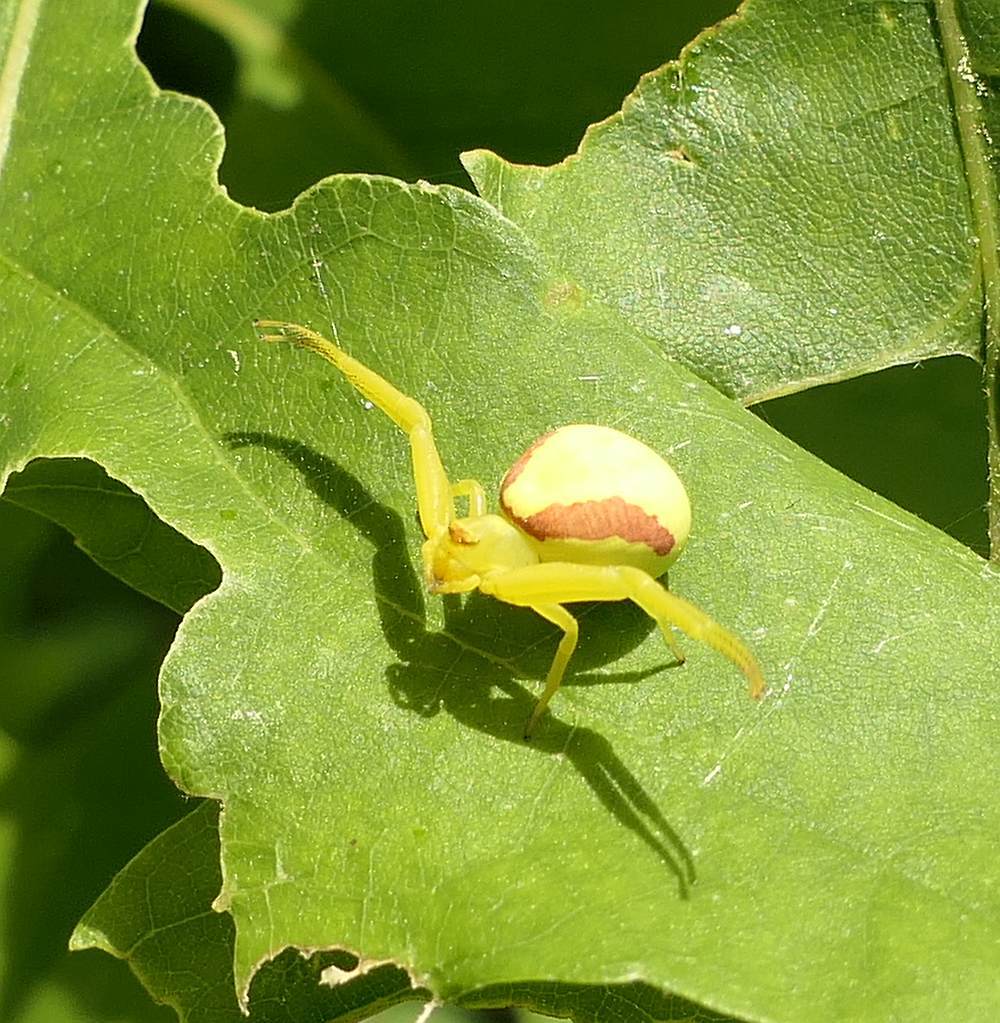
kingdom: Animalia
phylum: Arthropoda
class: Arachnida
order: Araneae
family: Thomisidae
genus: Misumena
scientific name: Misumena vatia
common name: Goldenrod crab spider
